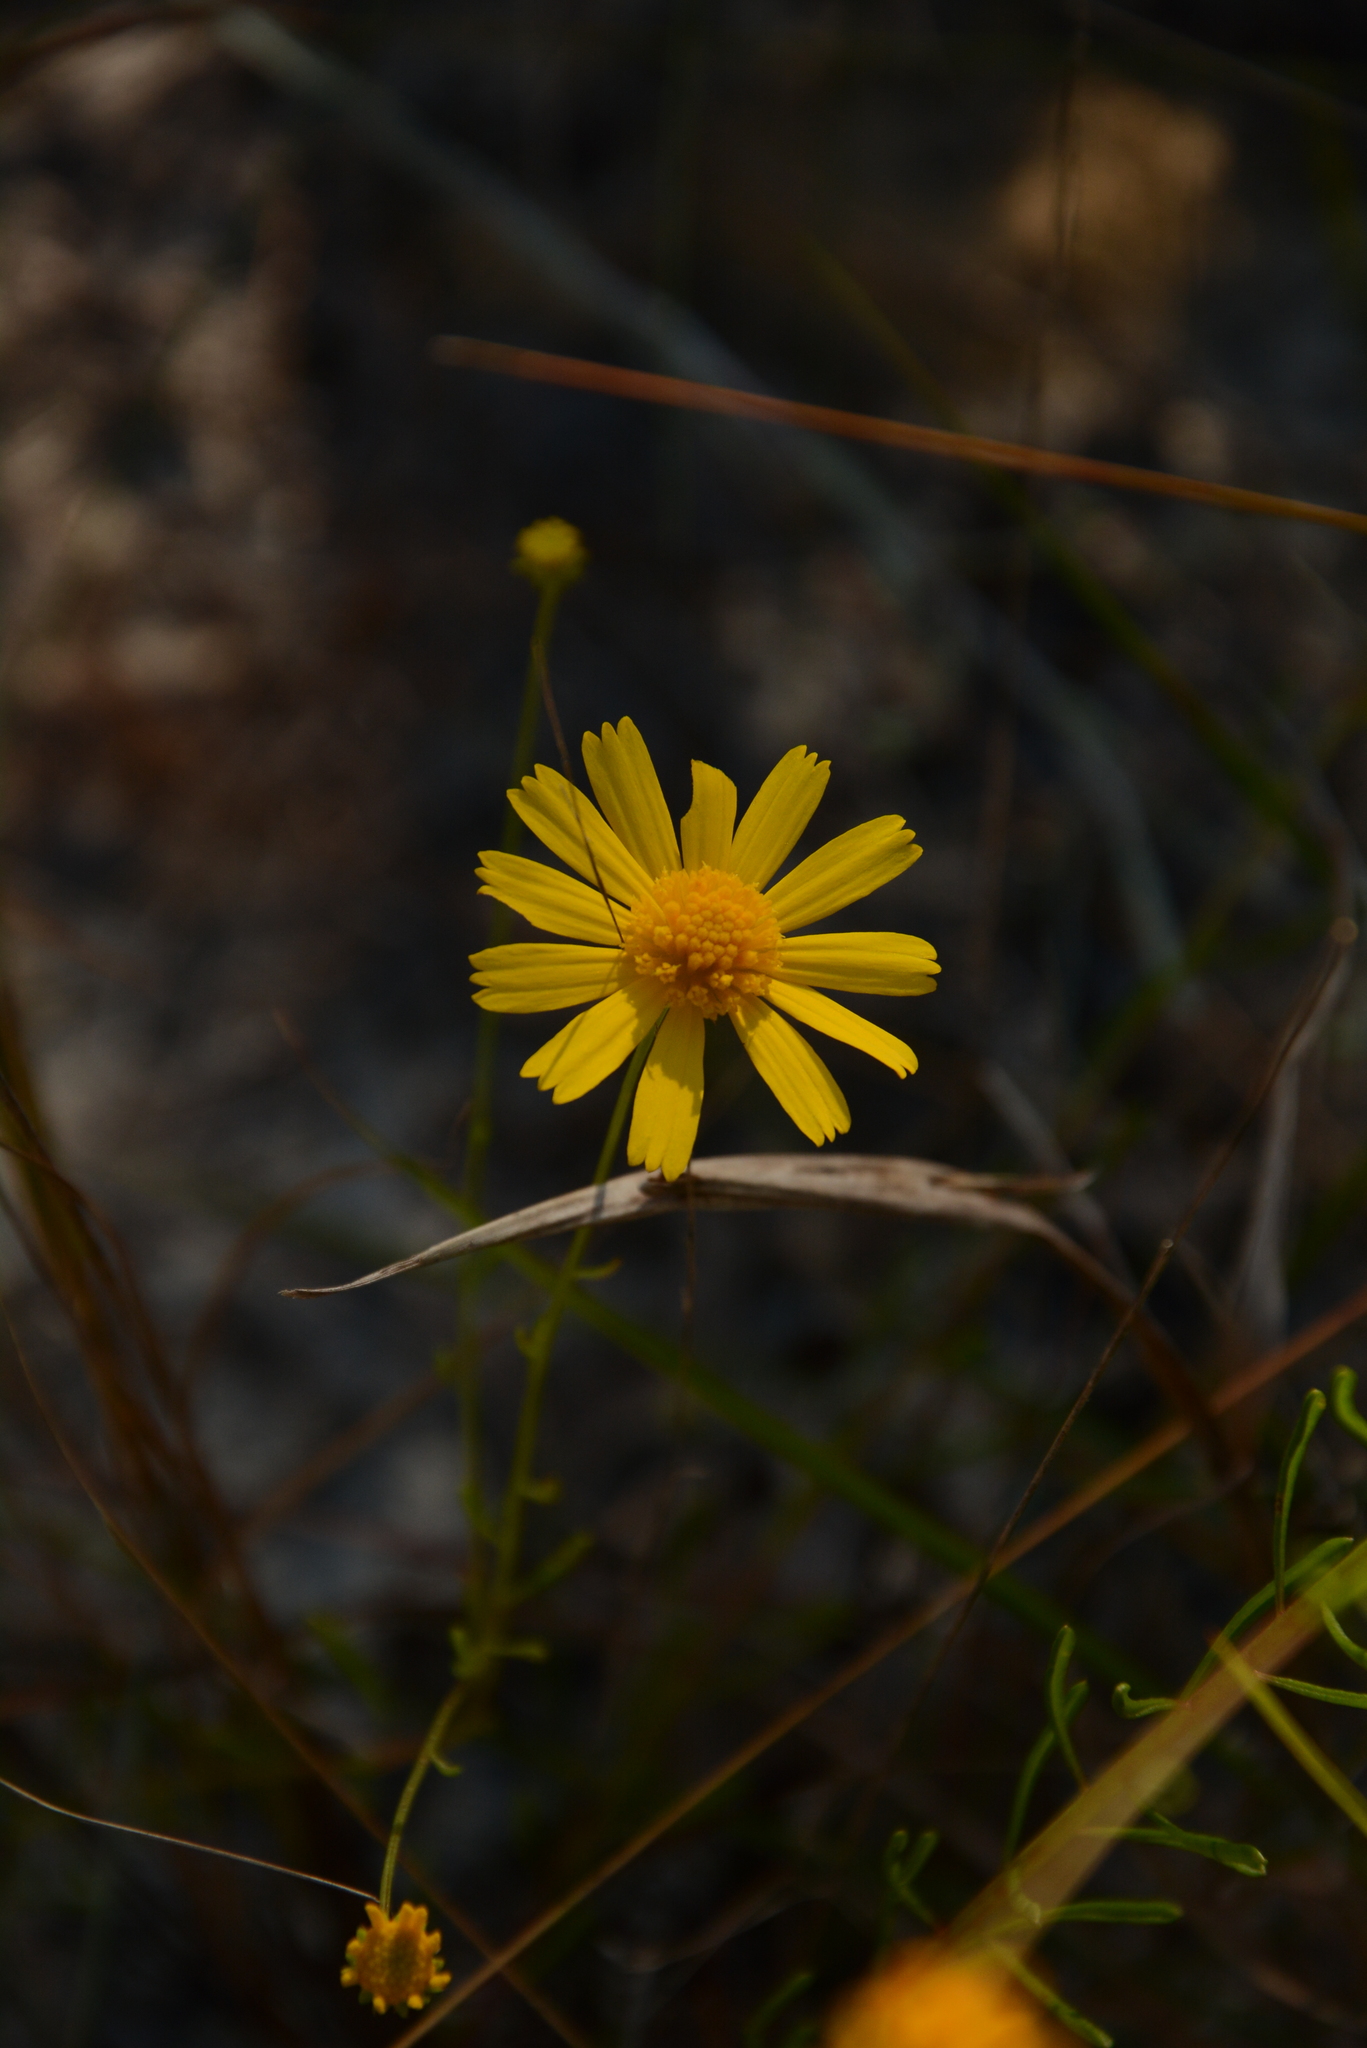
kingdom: Plantae
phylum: Tracheophyta
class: Magnoliopsida
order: Asterales
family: Asteraceae
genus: Balduina
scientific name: Balduina angustifolia
